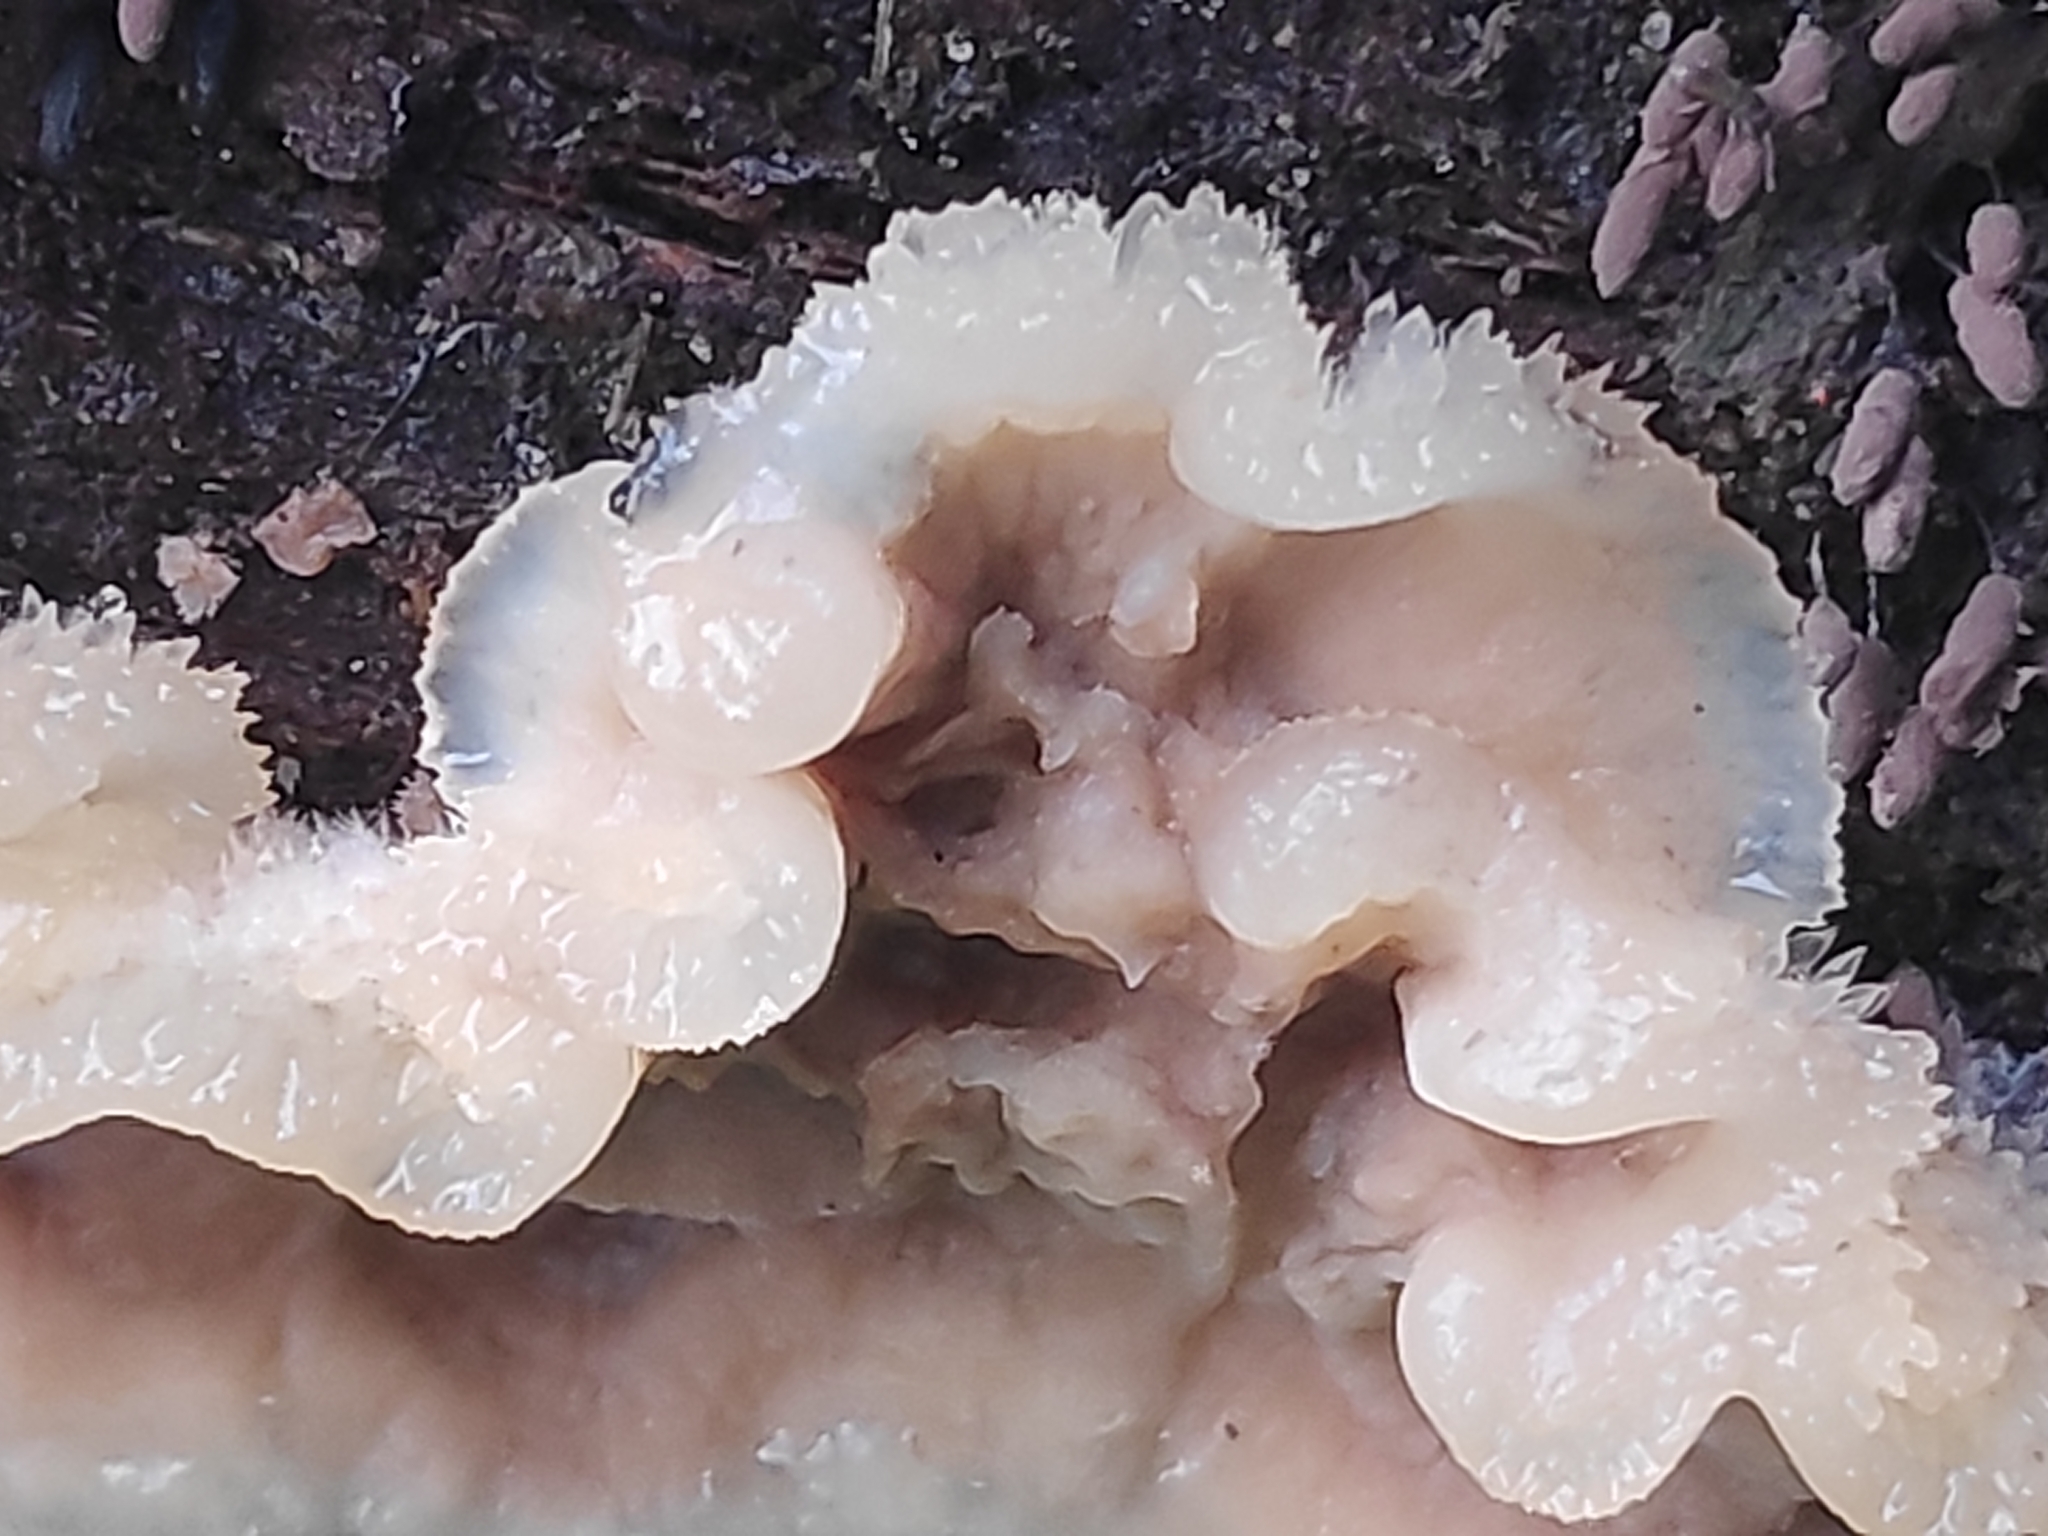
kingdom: Fungi
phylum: Basidiomycota
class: Agaricomycetes
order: Polyporales
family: Meruliaceae
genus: Phlebia
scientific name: Phlebia tremellosa
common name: Jelly rot
